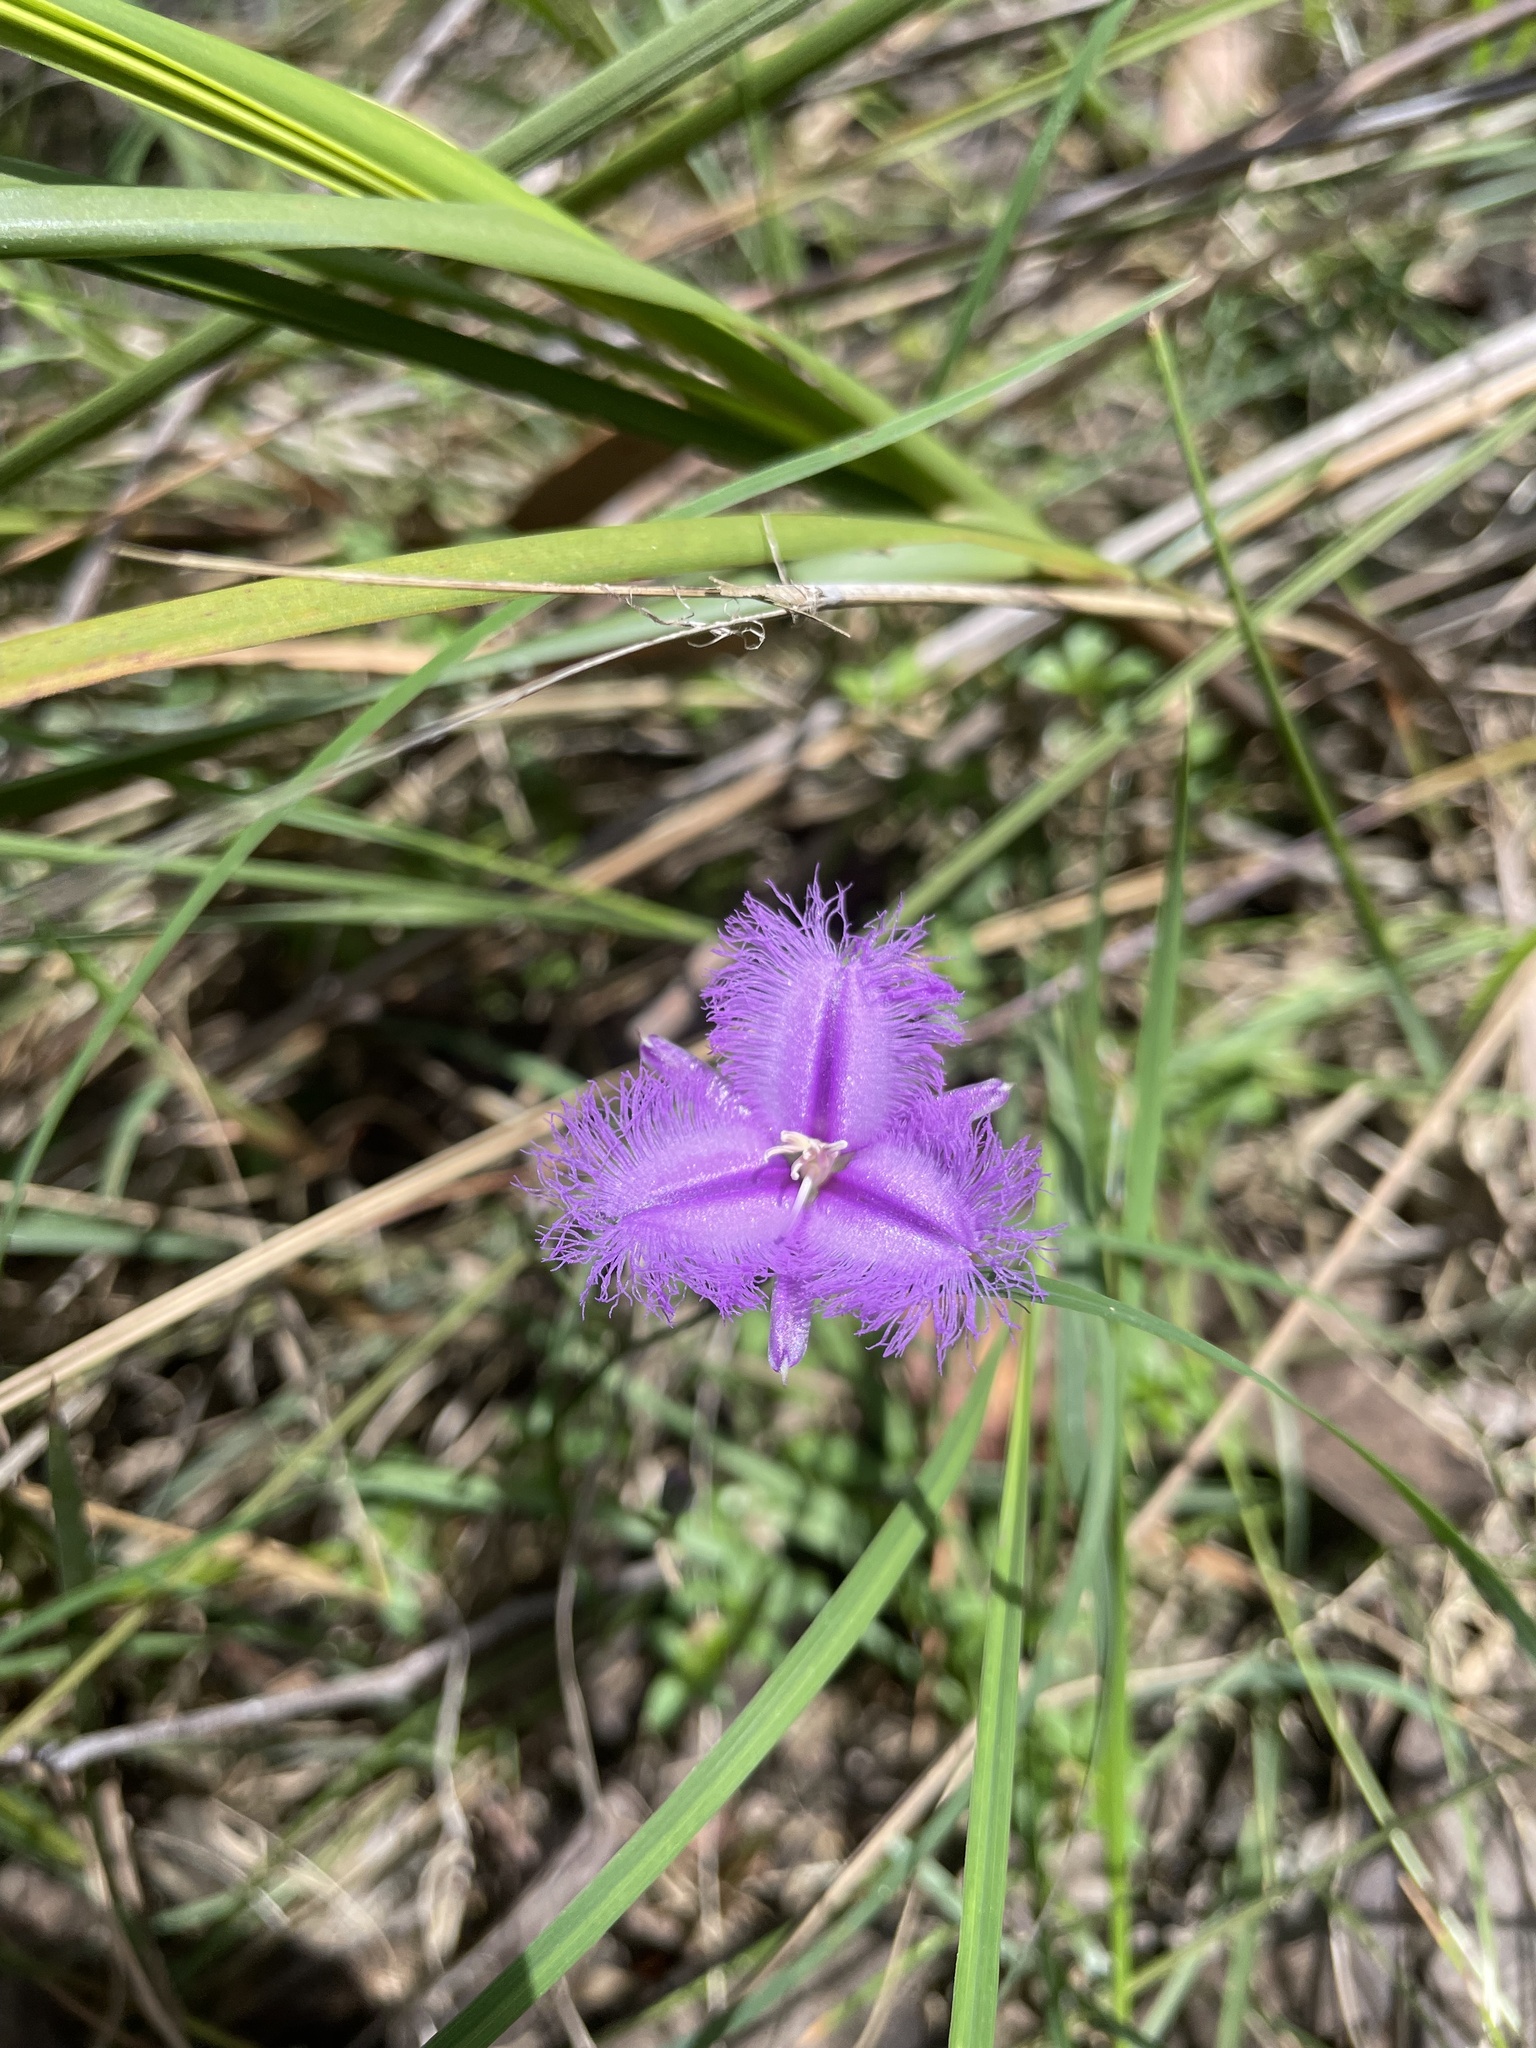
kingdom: Plantae
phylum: Tracheophyta
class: Liliopsida
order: Asparagales
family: Asparagaceae
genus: Thysanotus
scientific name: Thysanotus tuberosus
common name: Common fringed-lily
